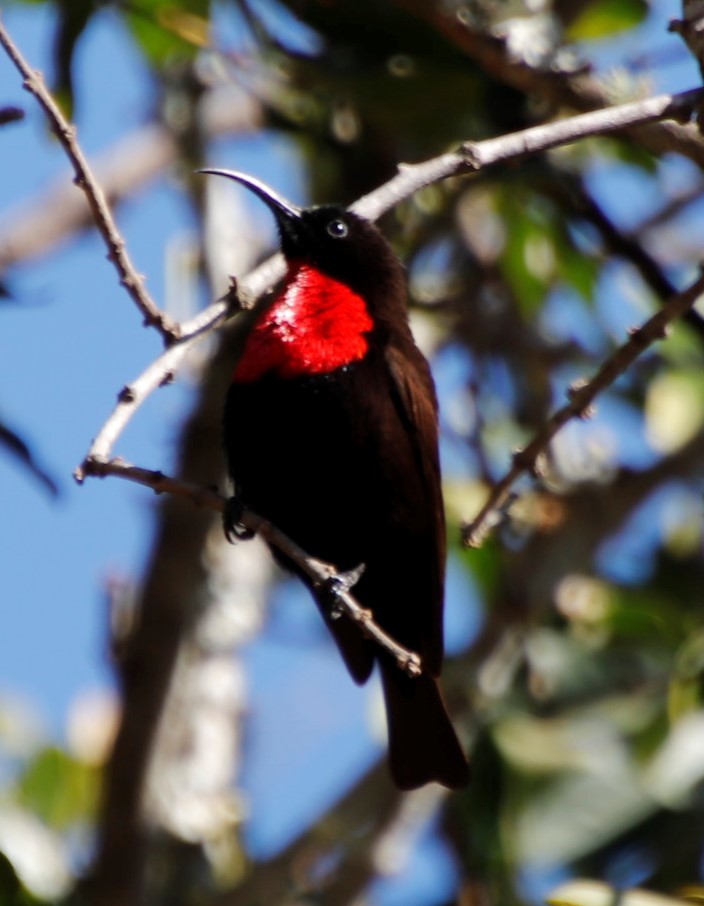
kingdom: Animalia
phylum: Chordata
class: Aves
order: Passeriformes
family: Nectariniidae
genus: Chalcomitra
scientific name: Chalcomitra senegalensis
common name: Scarlet-chested sunbird
